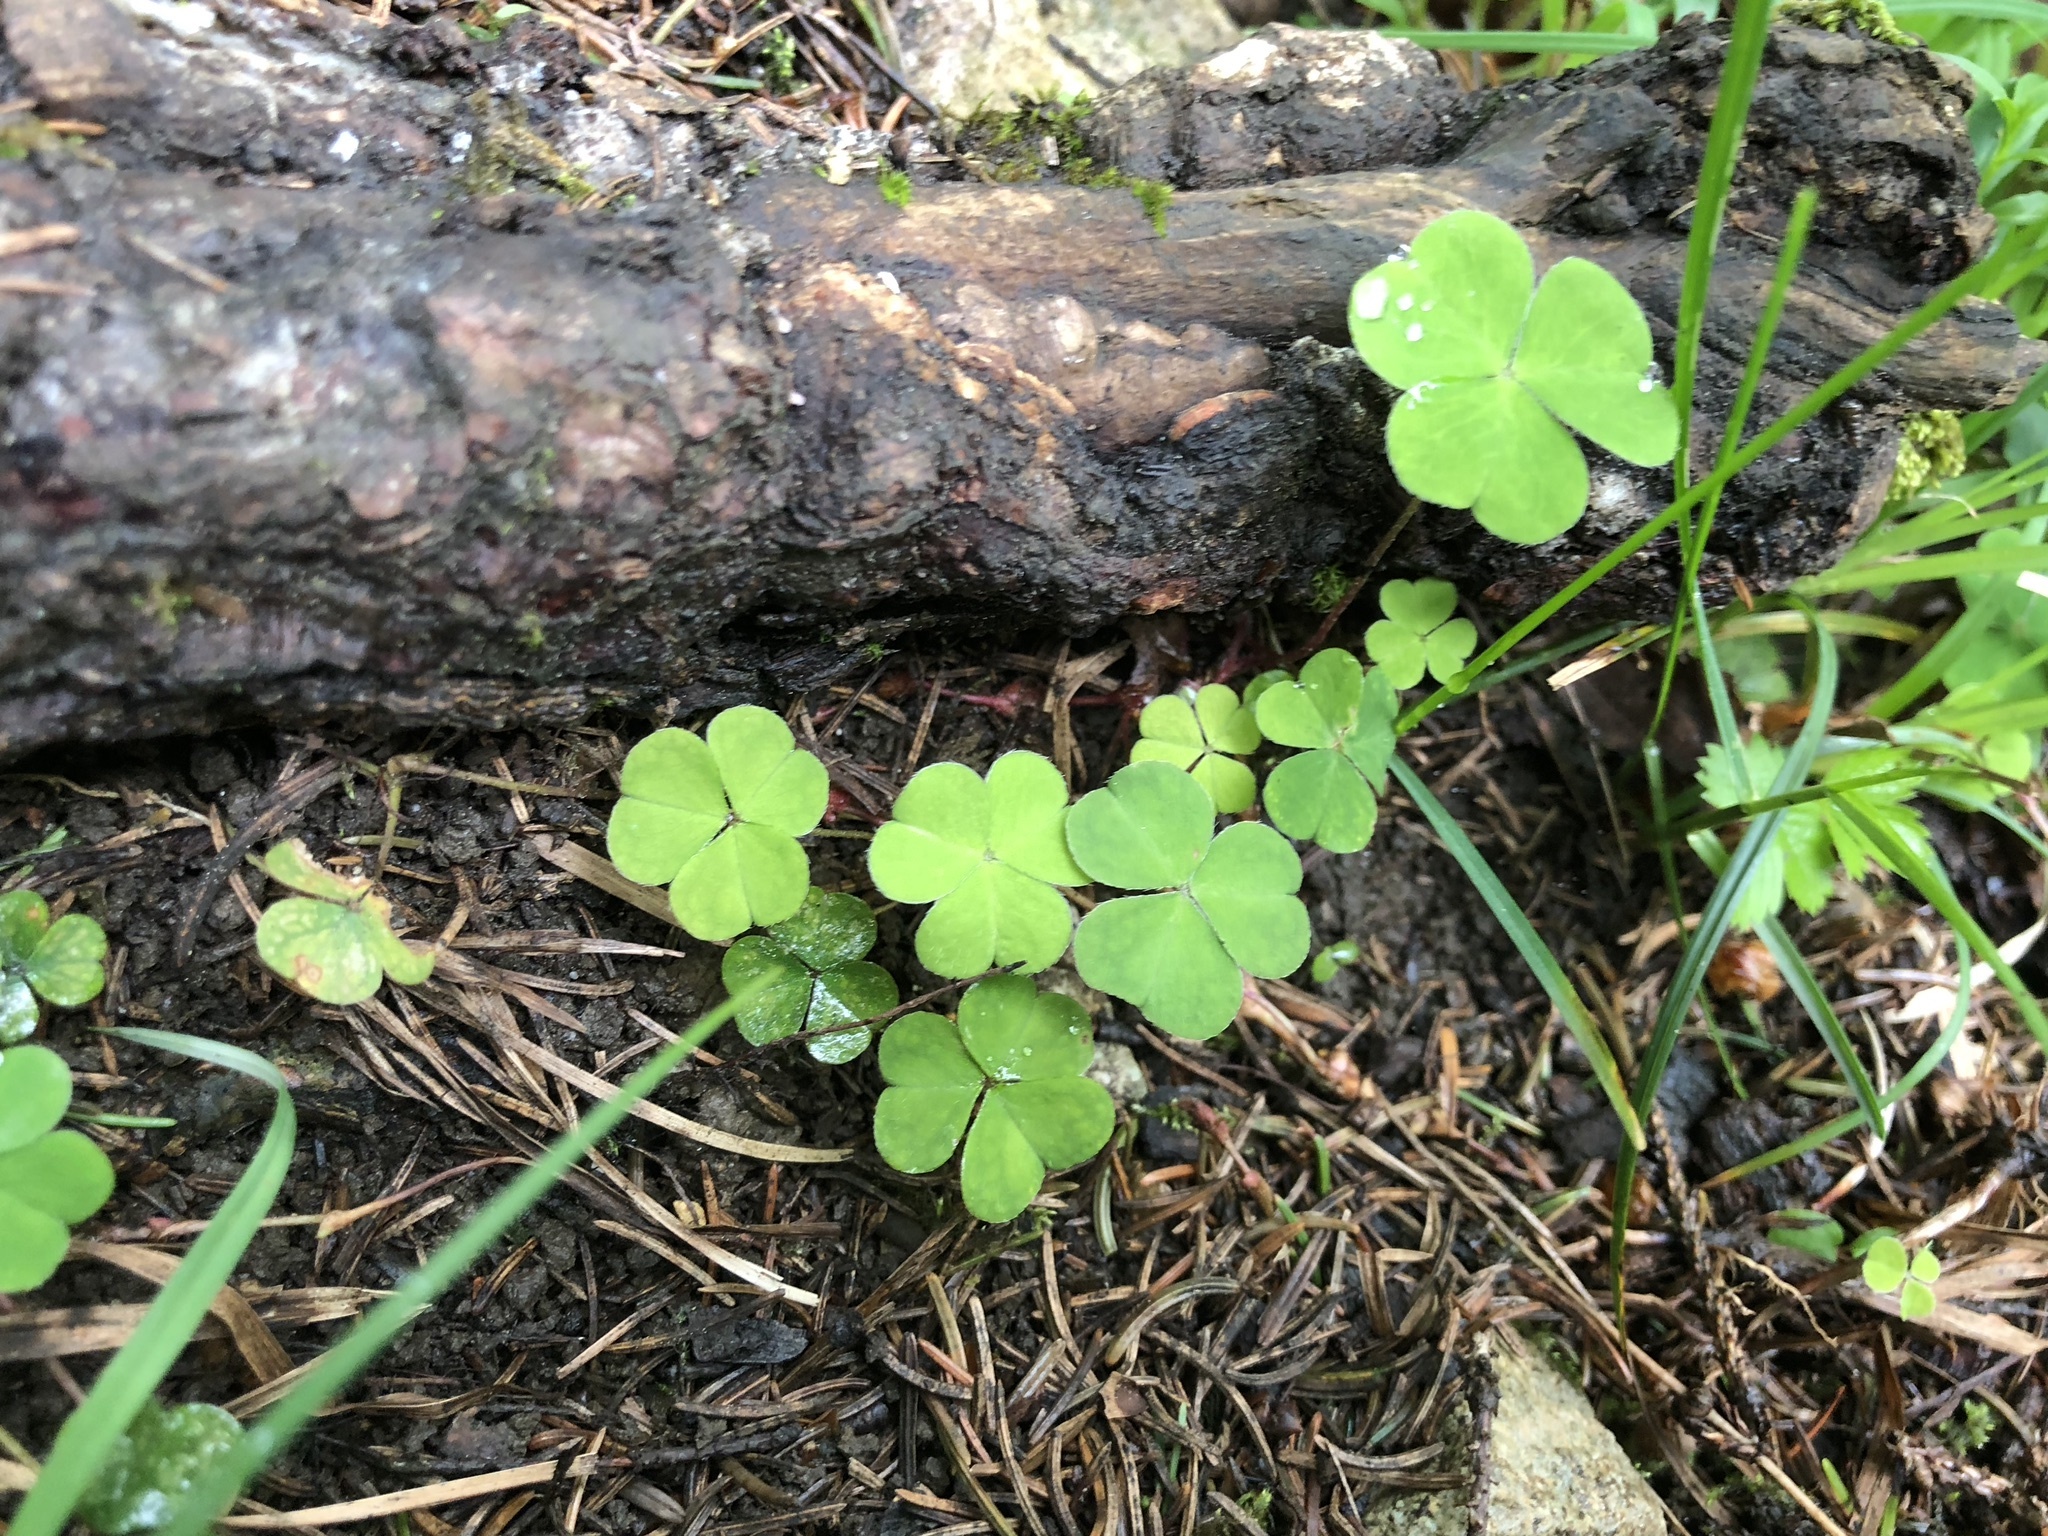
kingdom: Plantae
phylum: Tracheophyta
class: Magnoliopsida
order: Oxalidales
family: Oxalidaceae
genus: Oxalis
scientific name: Oxalis acetosella
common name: Wood-sorrel
